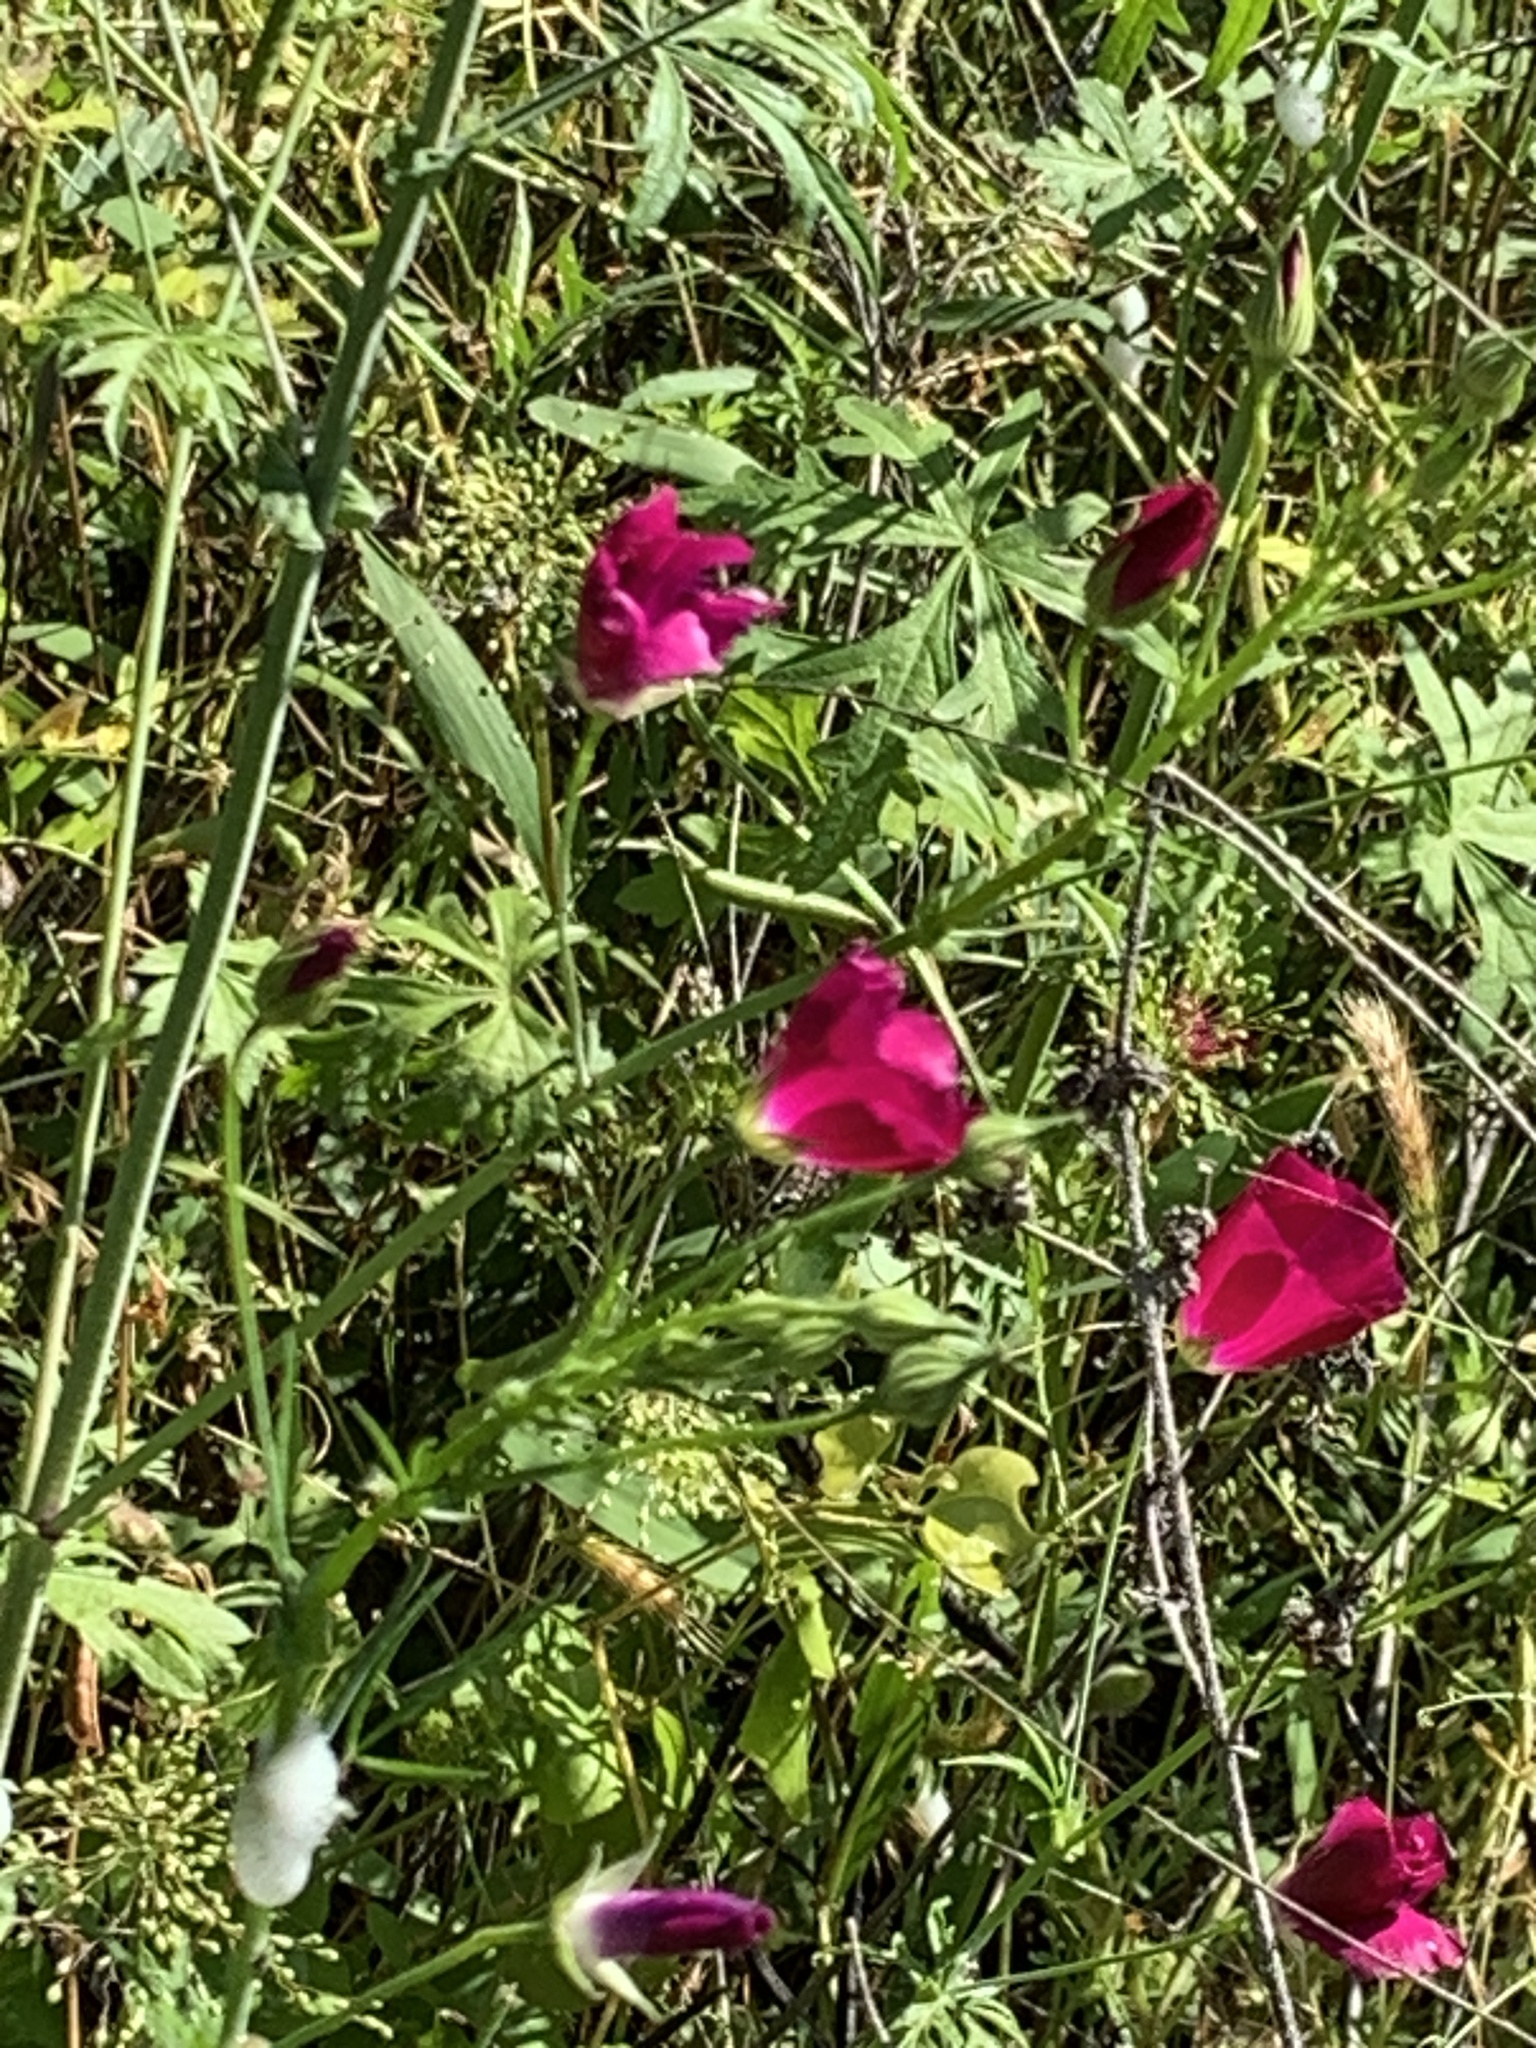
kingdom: Plantae
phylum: Tracheophyta
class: Magnoliopsida
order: Malvales
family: Malvaceae
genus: Callirhoe
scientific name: Callirhoe leiocarpa
